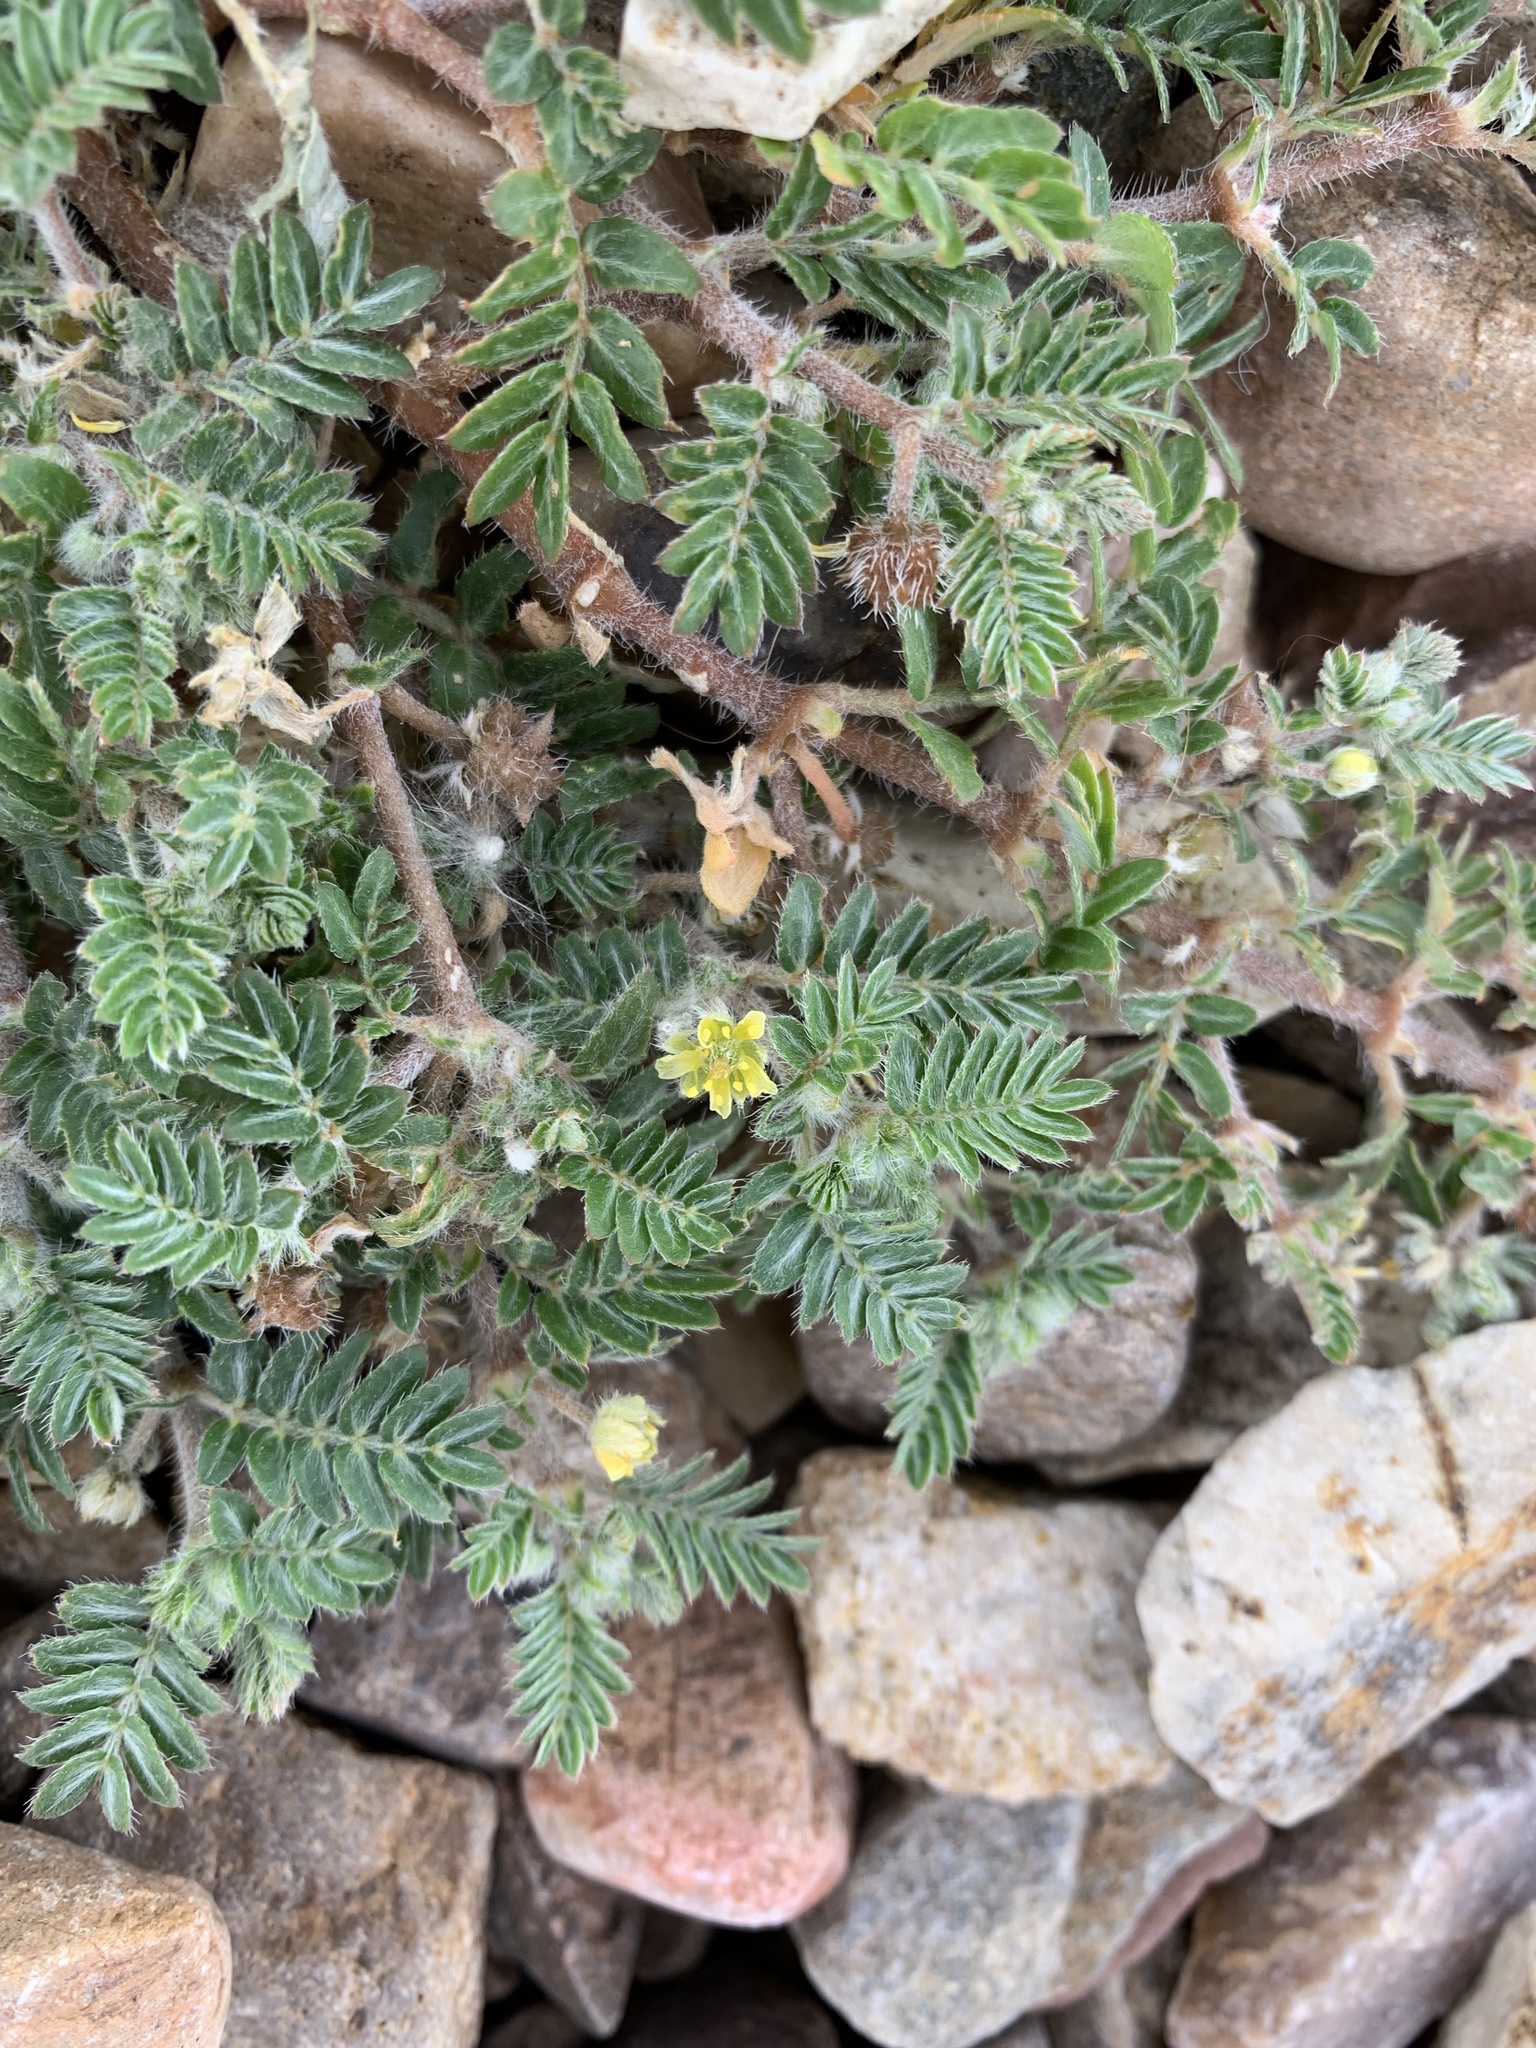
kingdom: Plantae
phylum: Tracheophyta
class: Magnoliopsida
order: Zygophyllales
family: Zygophyllaceae
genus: Tribulus
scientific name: Tribulus terrestris
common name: Puncturevine
